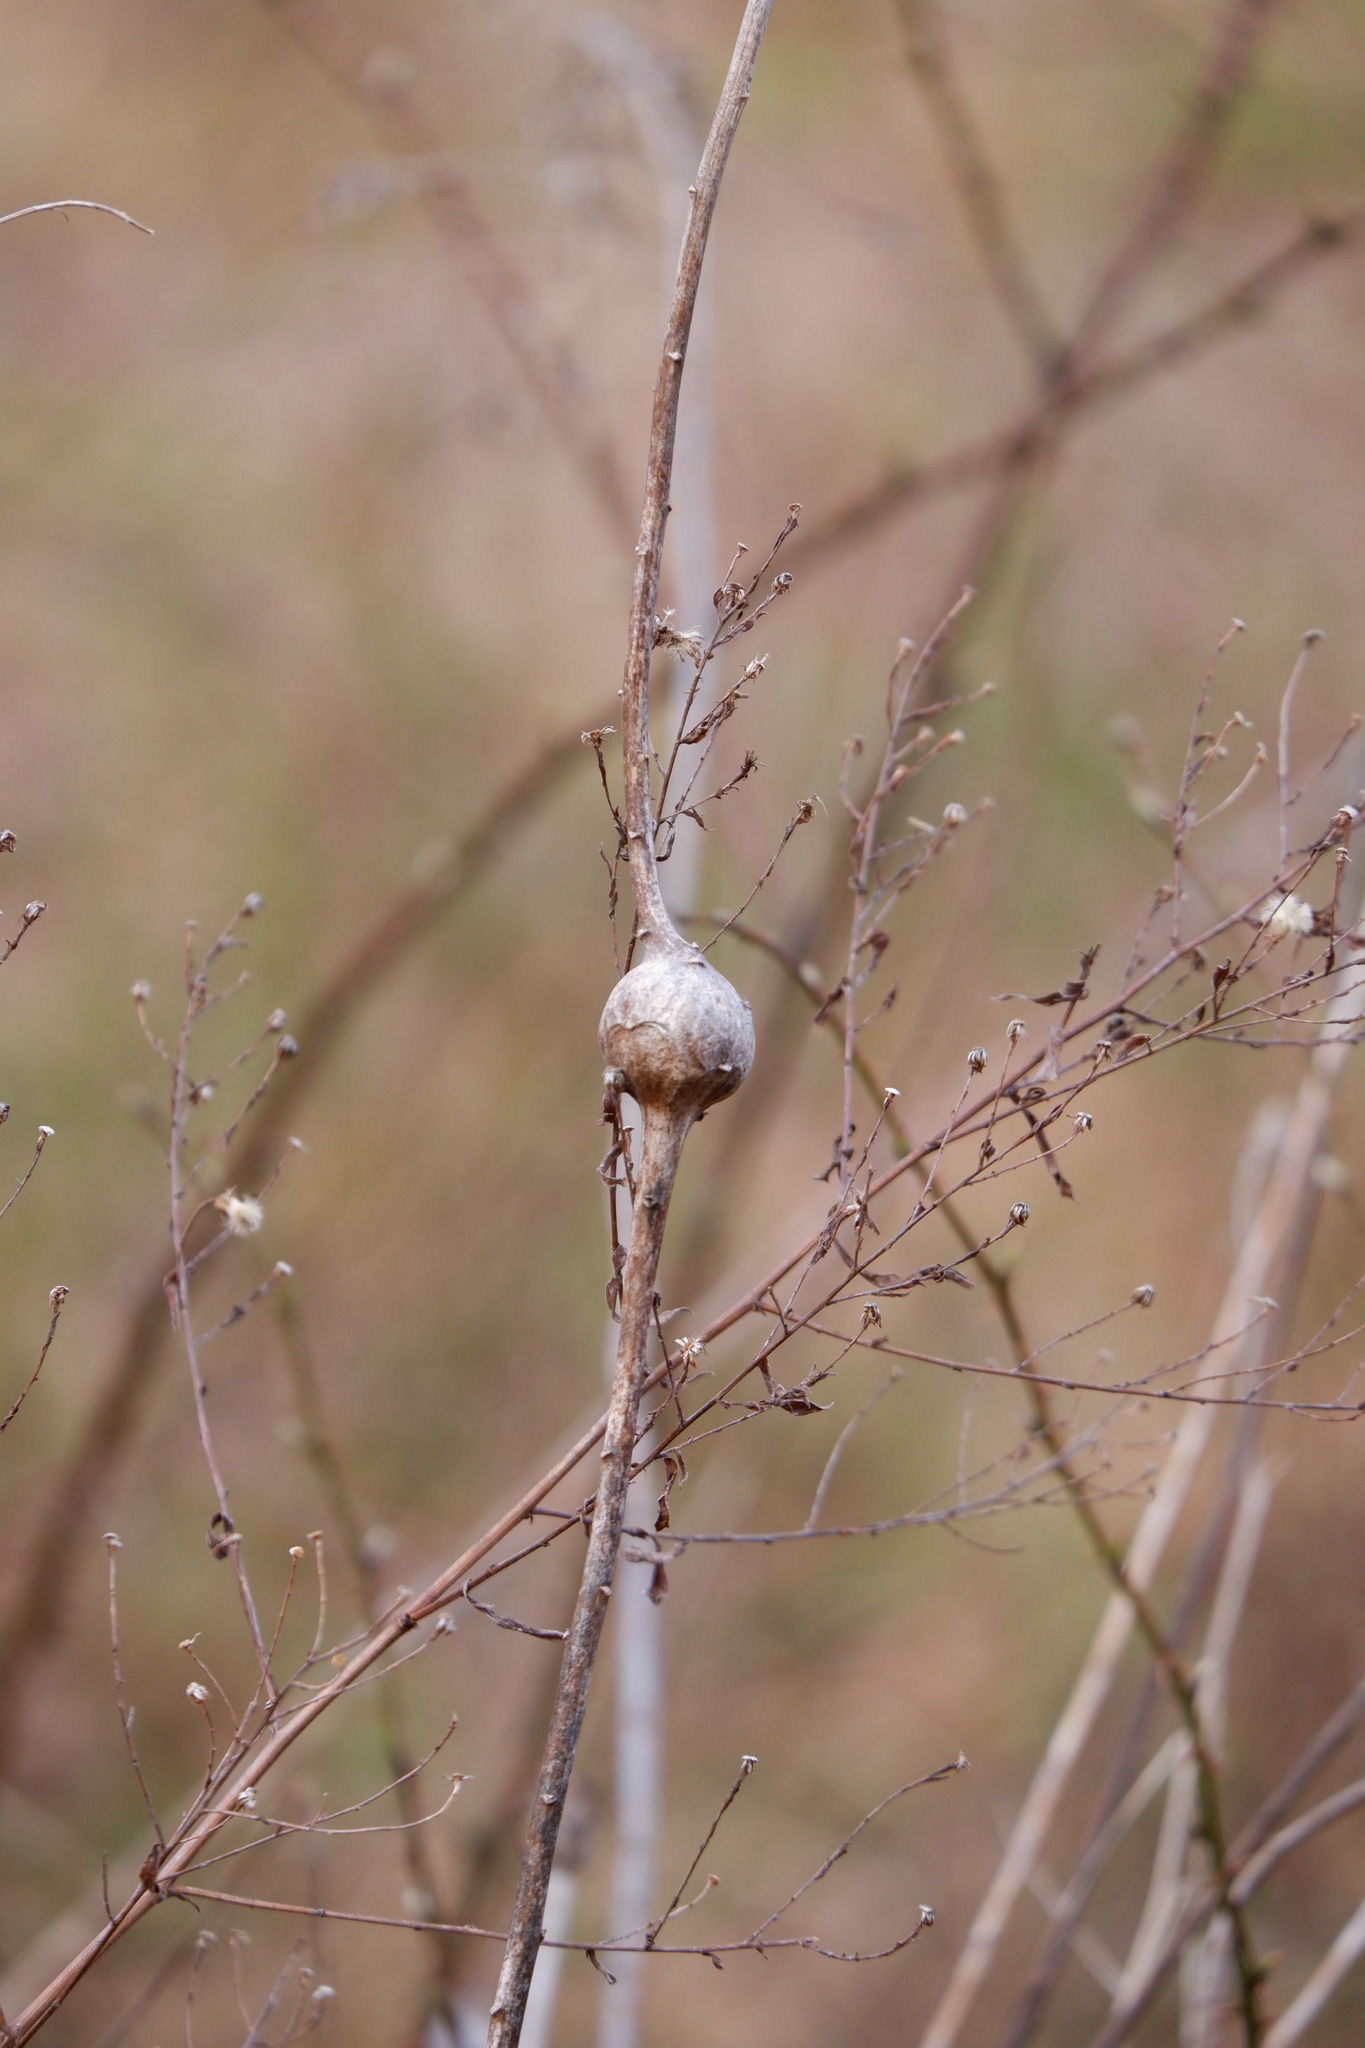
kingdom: Animalia
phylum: Arthropoda
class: Insecta
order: Diptera
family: Tephritidae
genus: Eurosta
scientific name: Eurosta solidaginis
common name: Goldenrod gall fly
